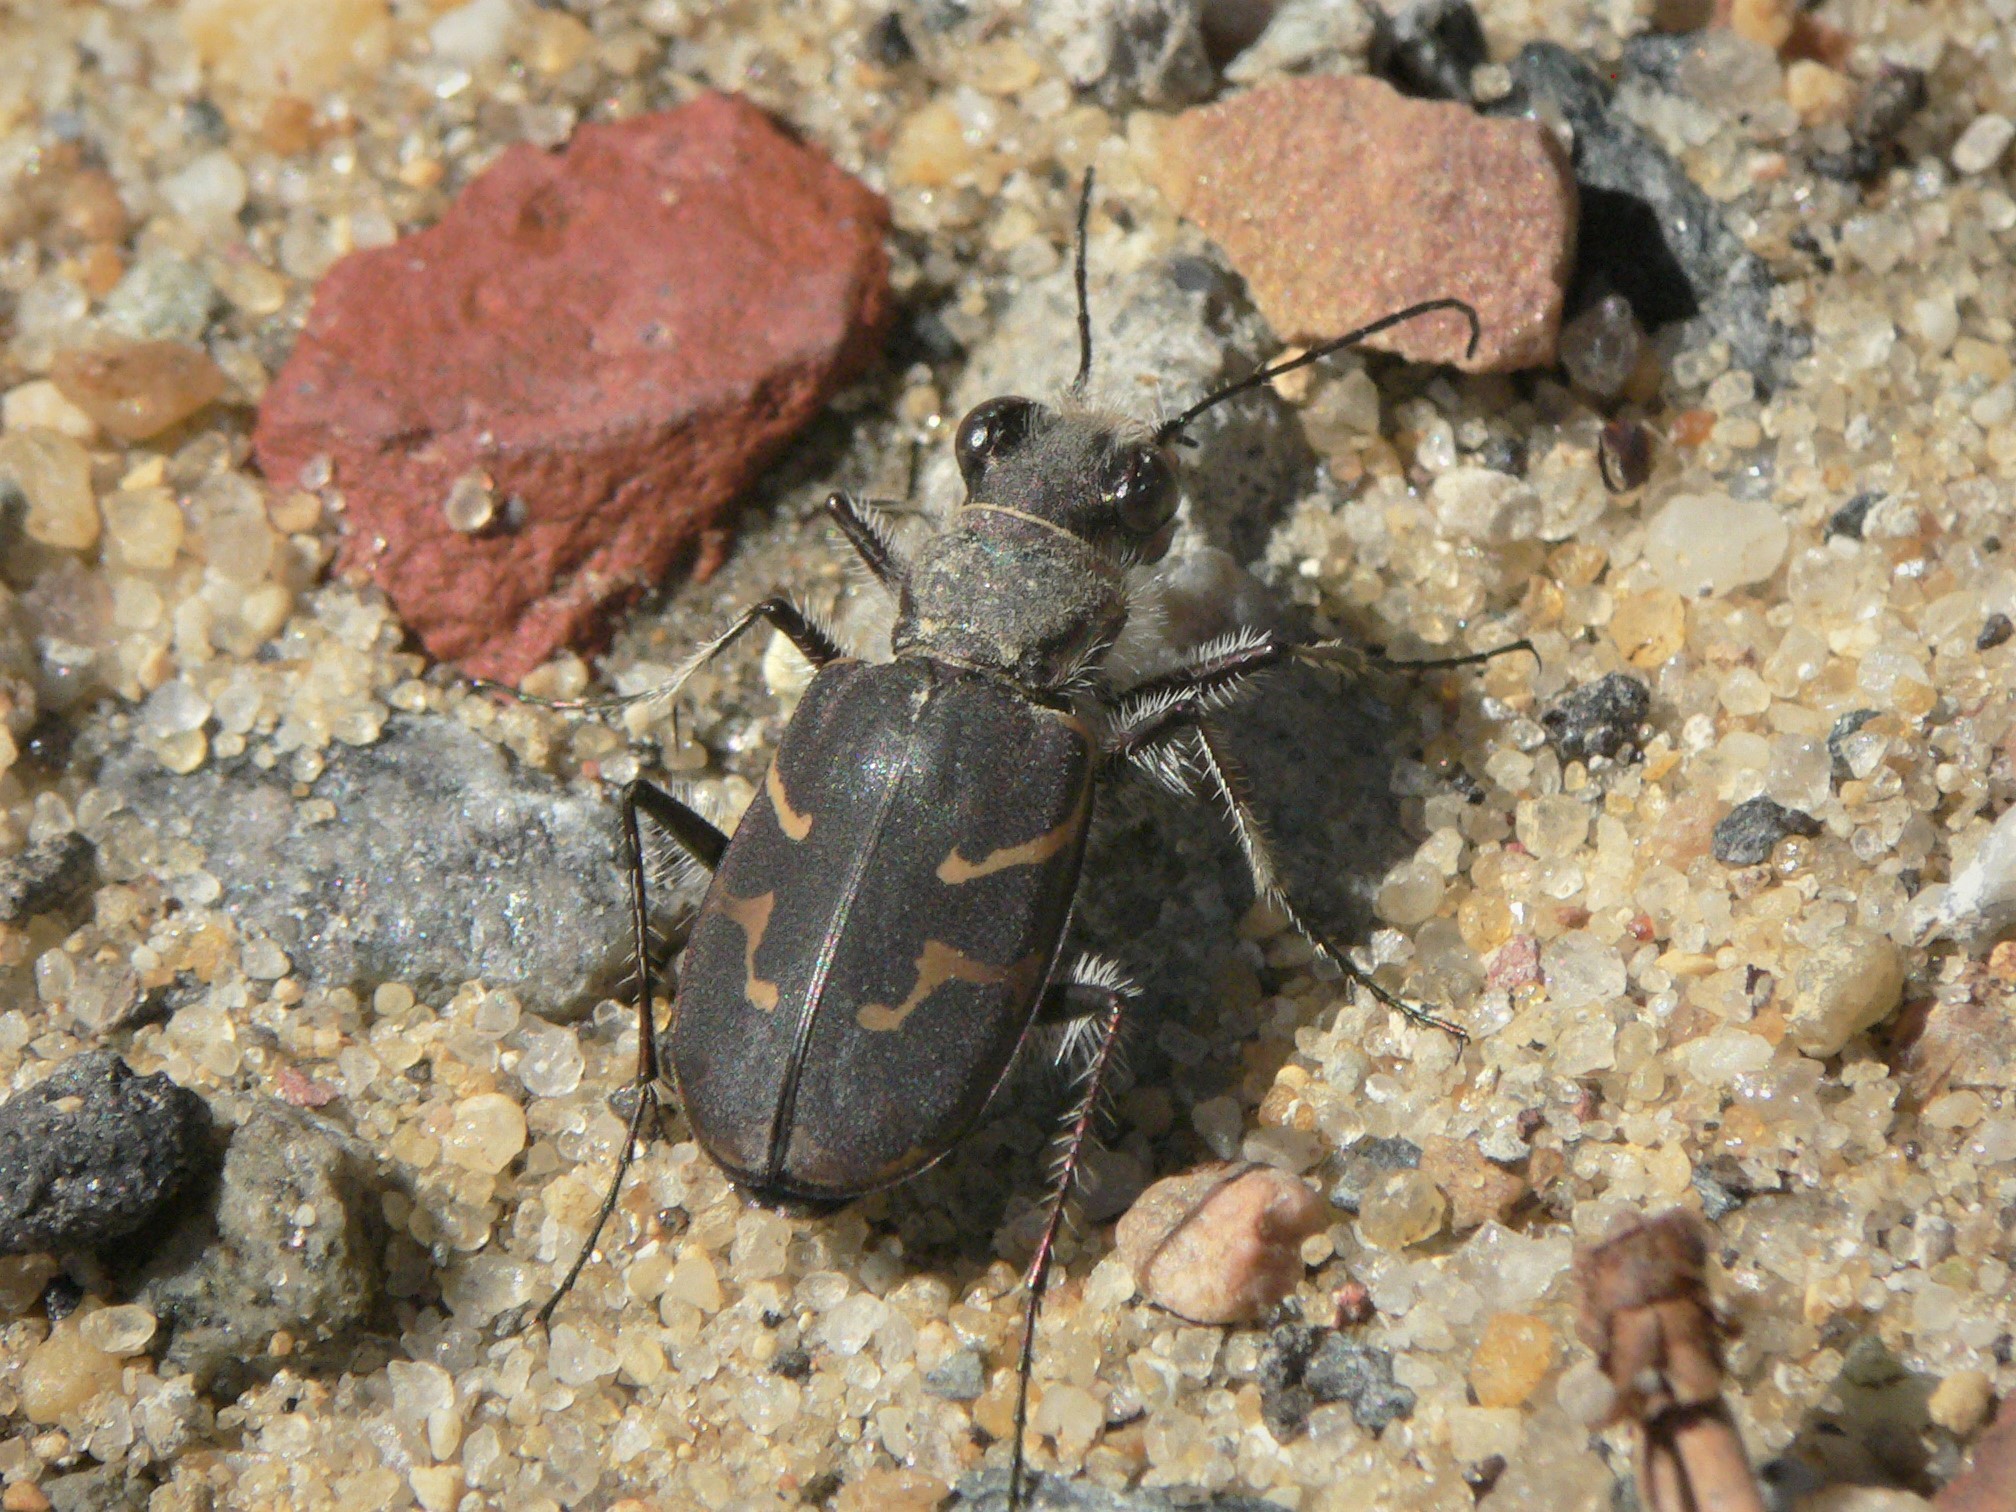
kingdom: Animalia
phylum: Arthropoda
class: Insecta
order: Coleoptera
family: Carabidae
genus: Cicindela
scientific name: Cicindela tranquebarica
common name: Oblique-lined tiger beetle
